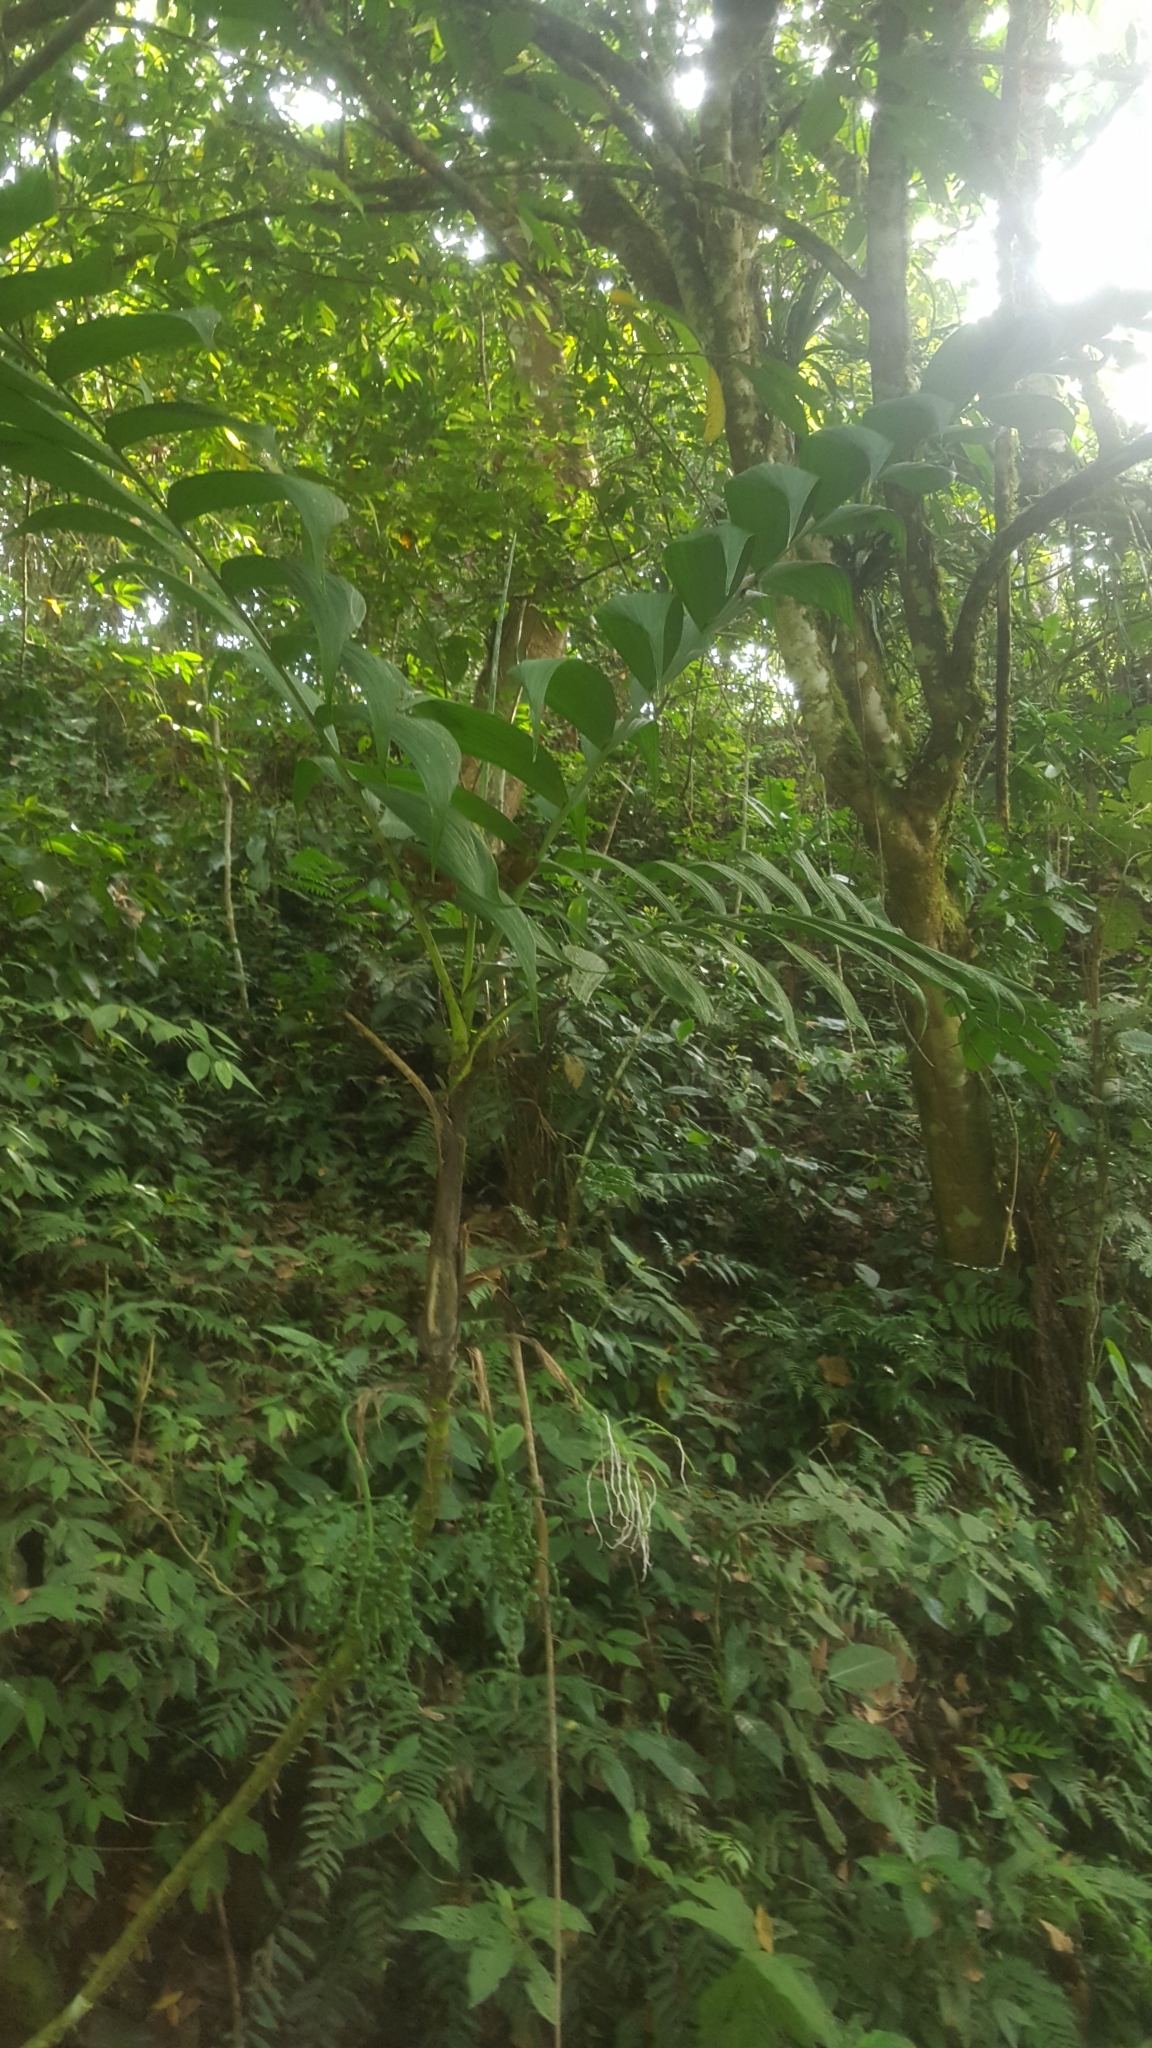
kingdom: Plantae
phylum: Tracheophyta
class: Liliopsida
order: Arecales
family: Arecaceae
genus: Chamaedorea
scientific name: Chamaedorea linearis
